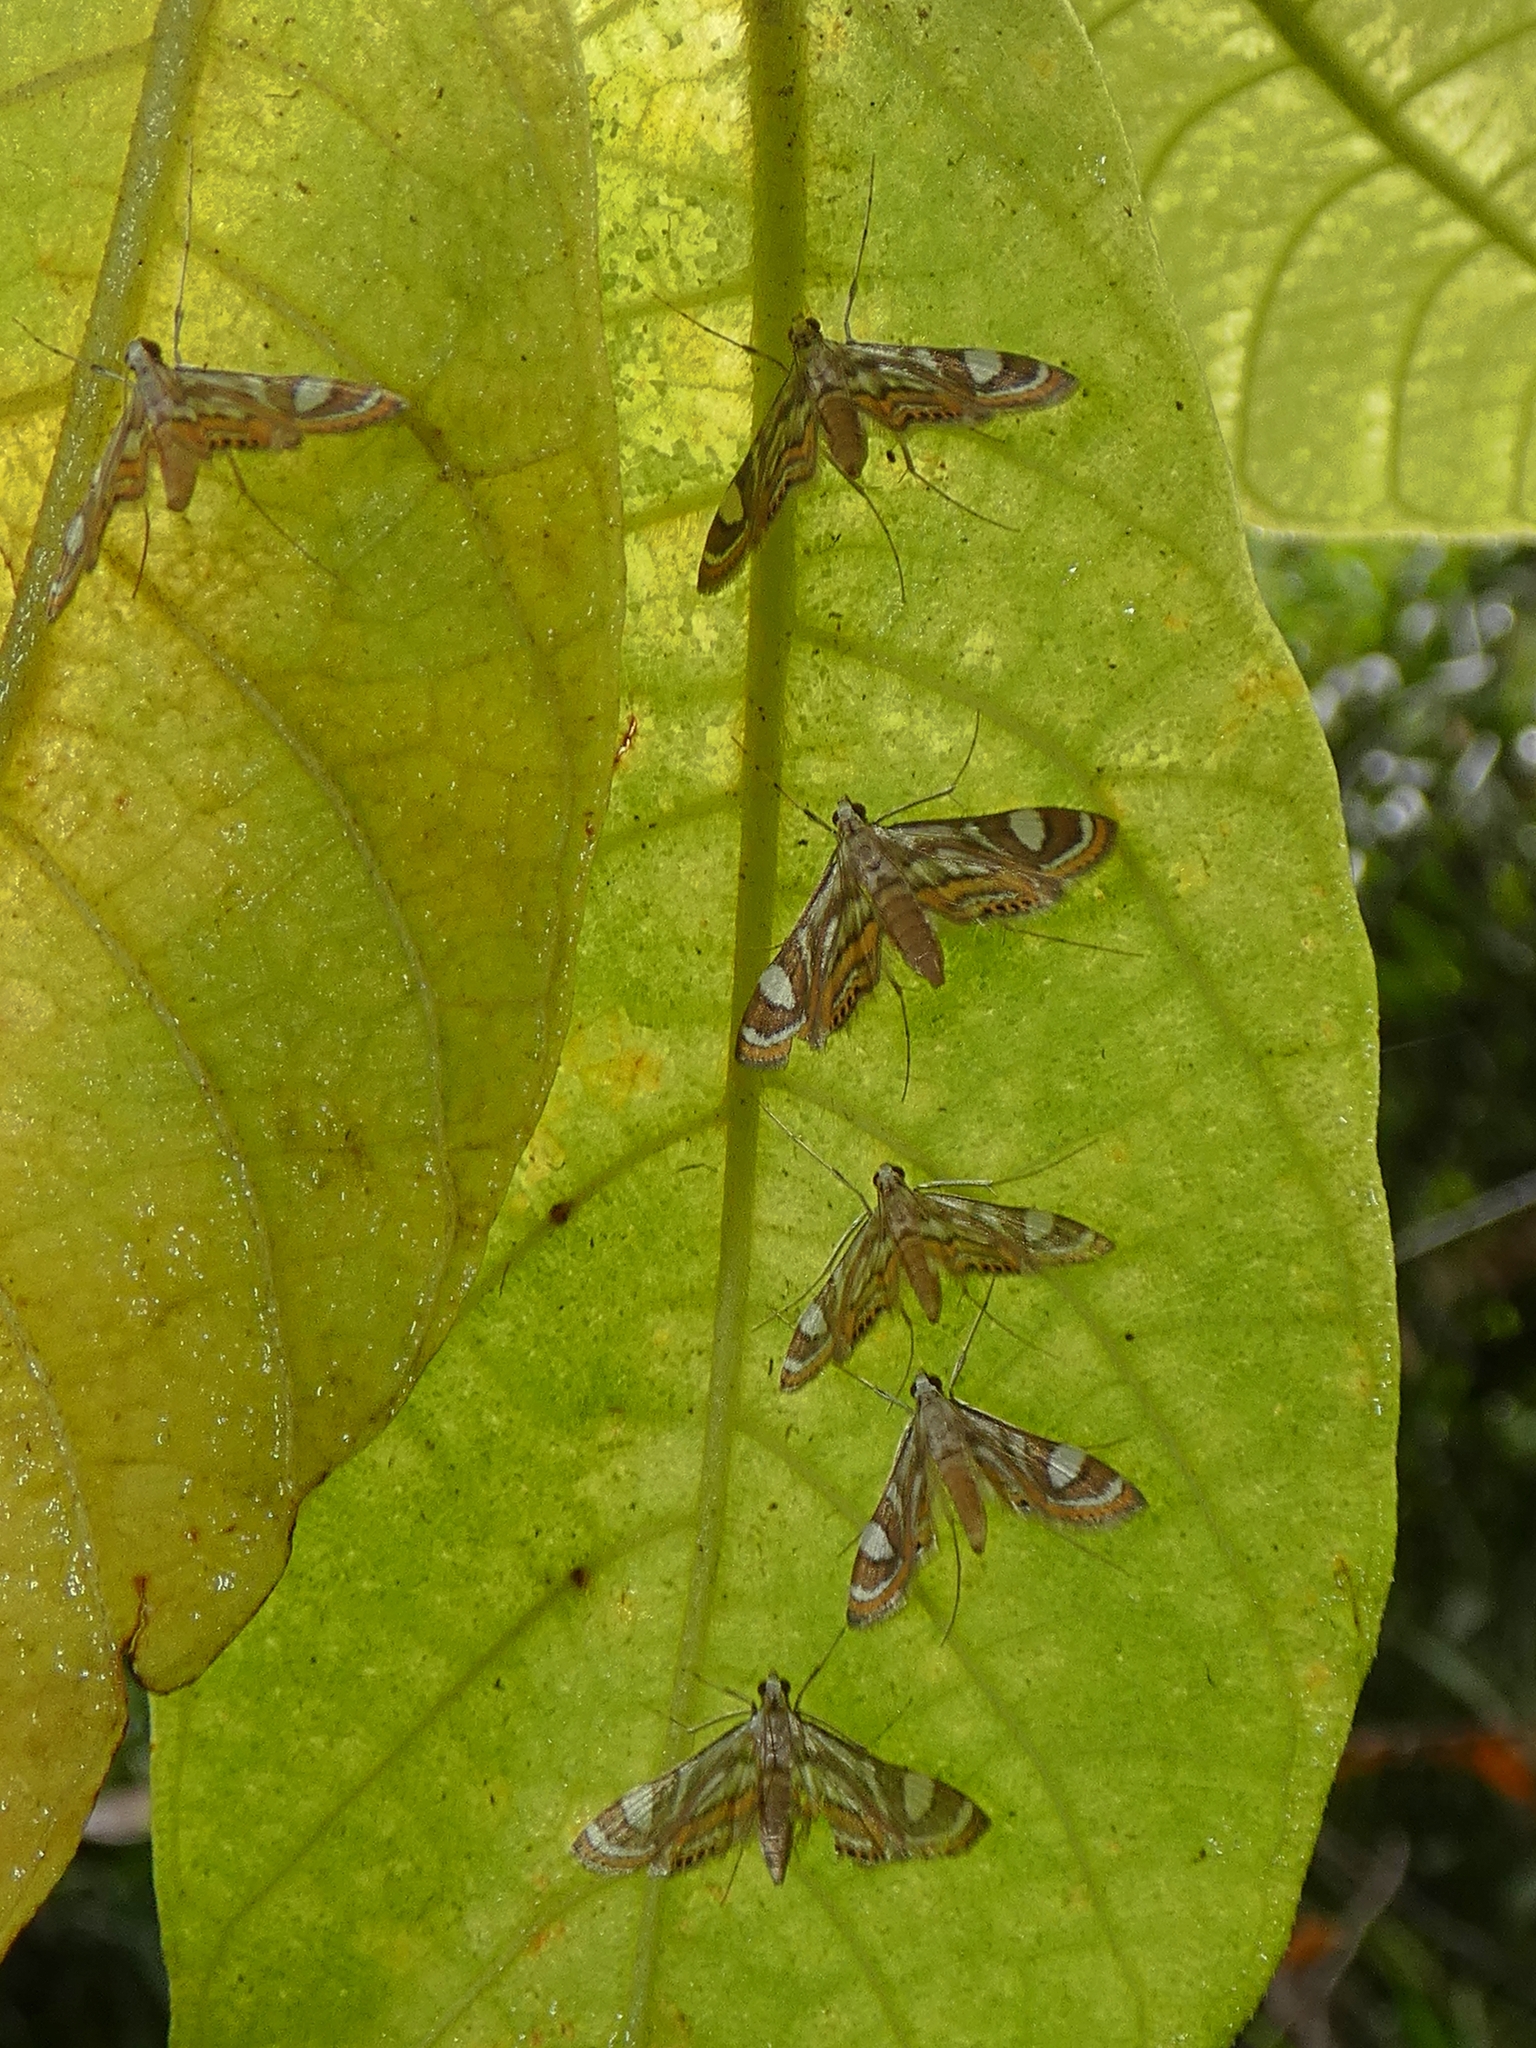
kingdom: Animalia
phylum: Arthropoda
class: Insecta
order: Lepidoptera
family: Crambidae
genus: Strepsinoma
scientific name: Strepsinoma croesusalis
